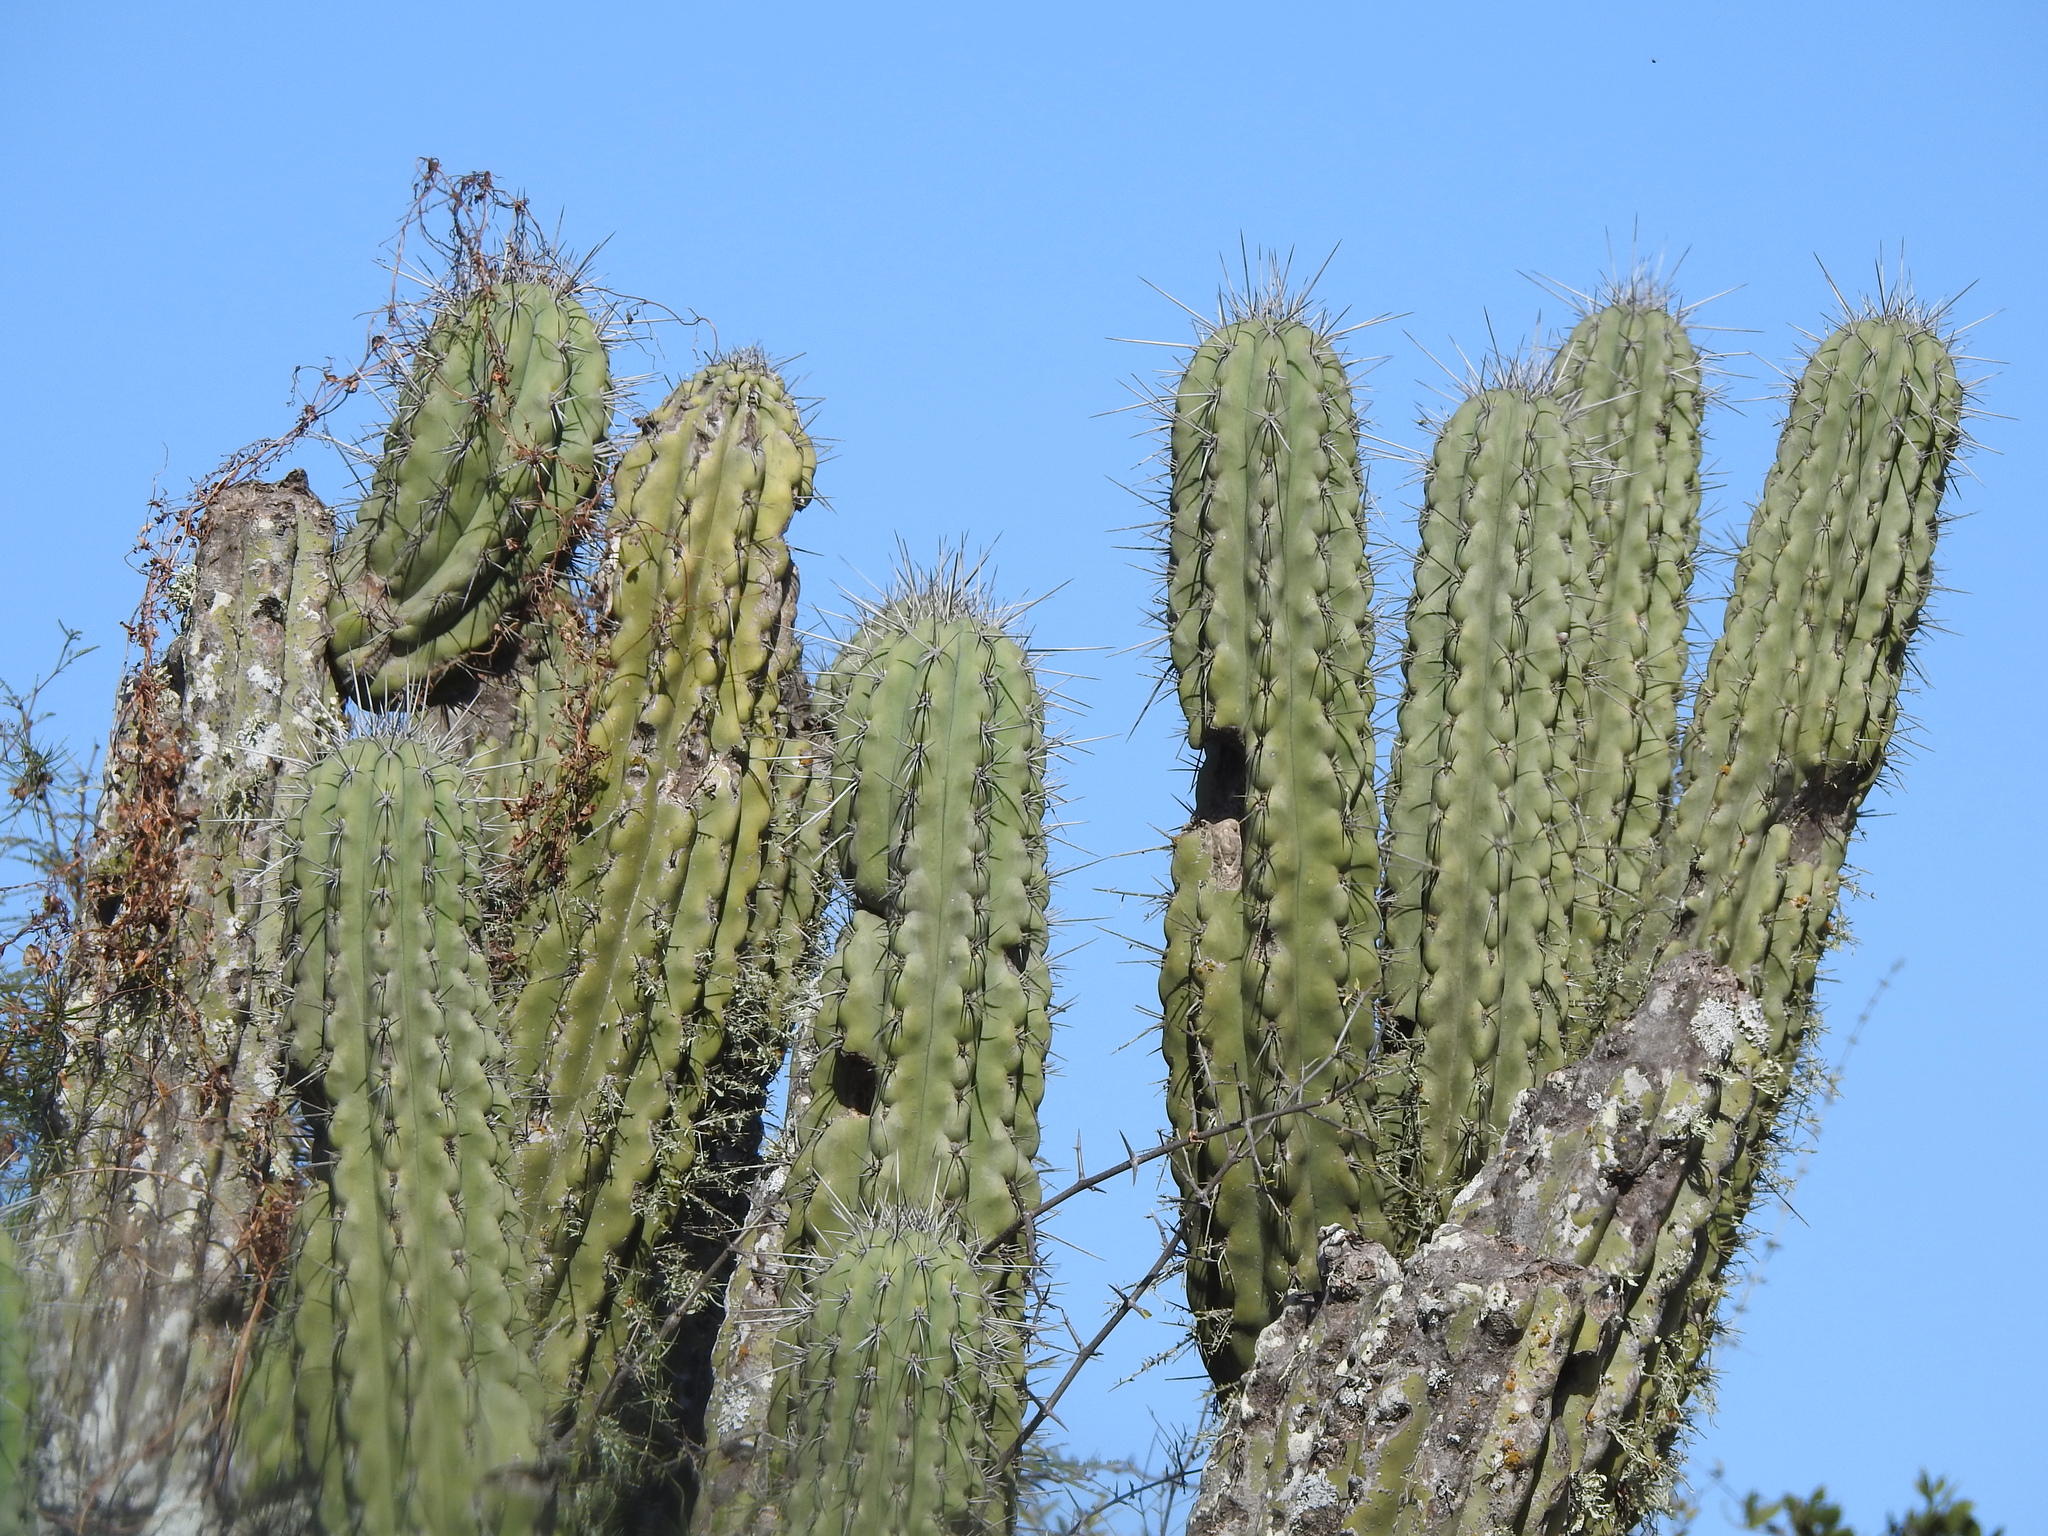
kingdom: Plantae
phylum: Tracheophyta
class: Magnoliopsida
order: Caryophyllales
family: Cactaceae
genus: Stetsonia
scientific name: Stetsonia coryne
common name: Toothpick cactus
